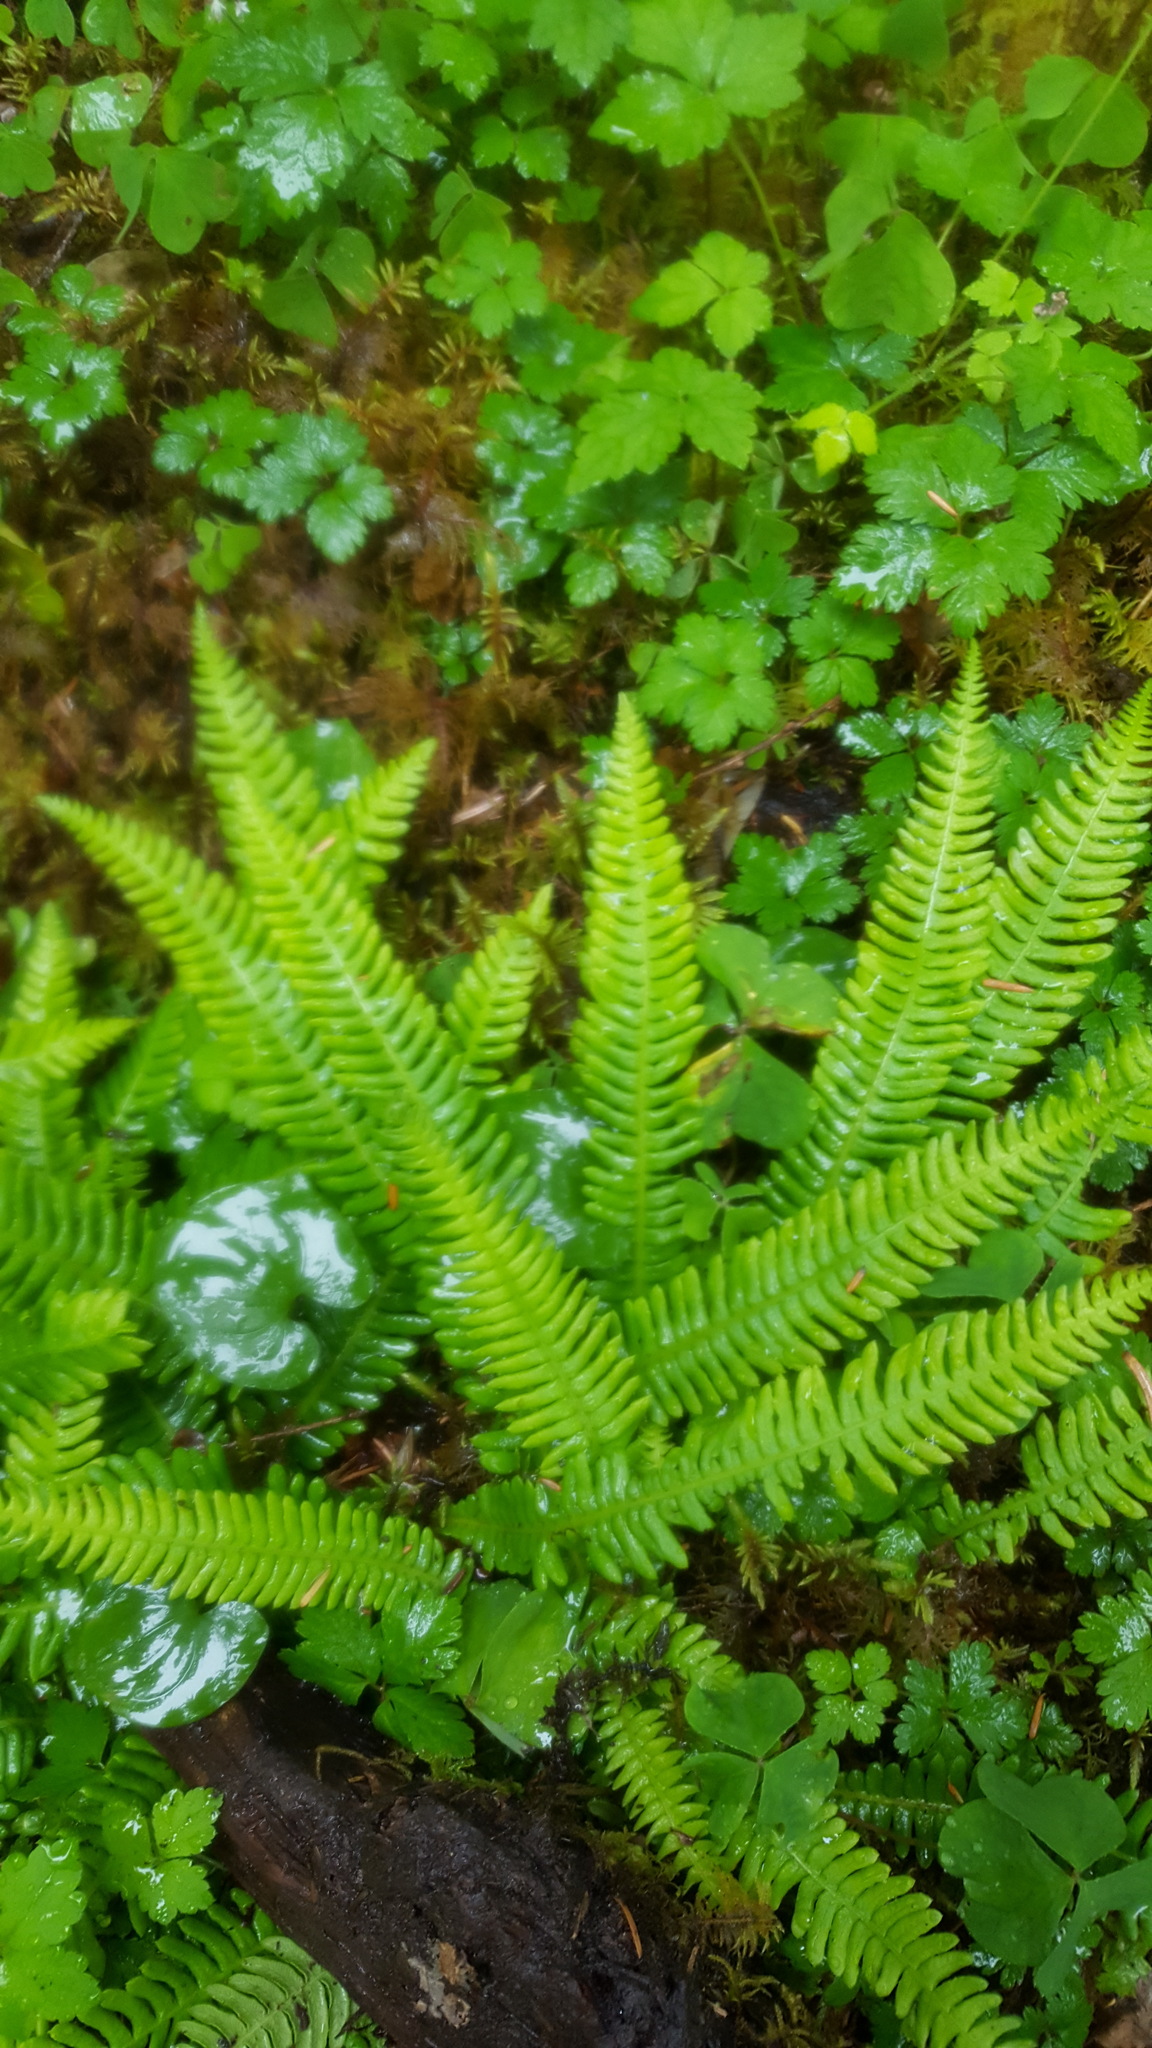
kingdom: Plantae
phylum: Tracheophyta
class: Polypodiopsida
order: Polypodiales
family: Blechnaceae
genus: Struthiopteris
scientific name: Struthiopteris spicant
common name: Deer fern
